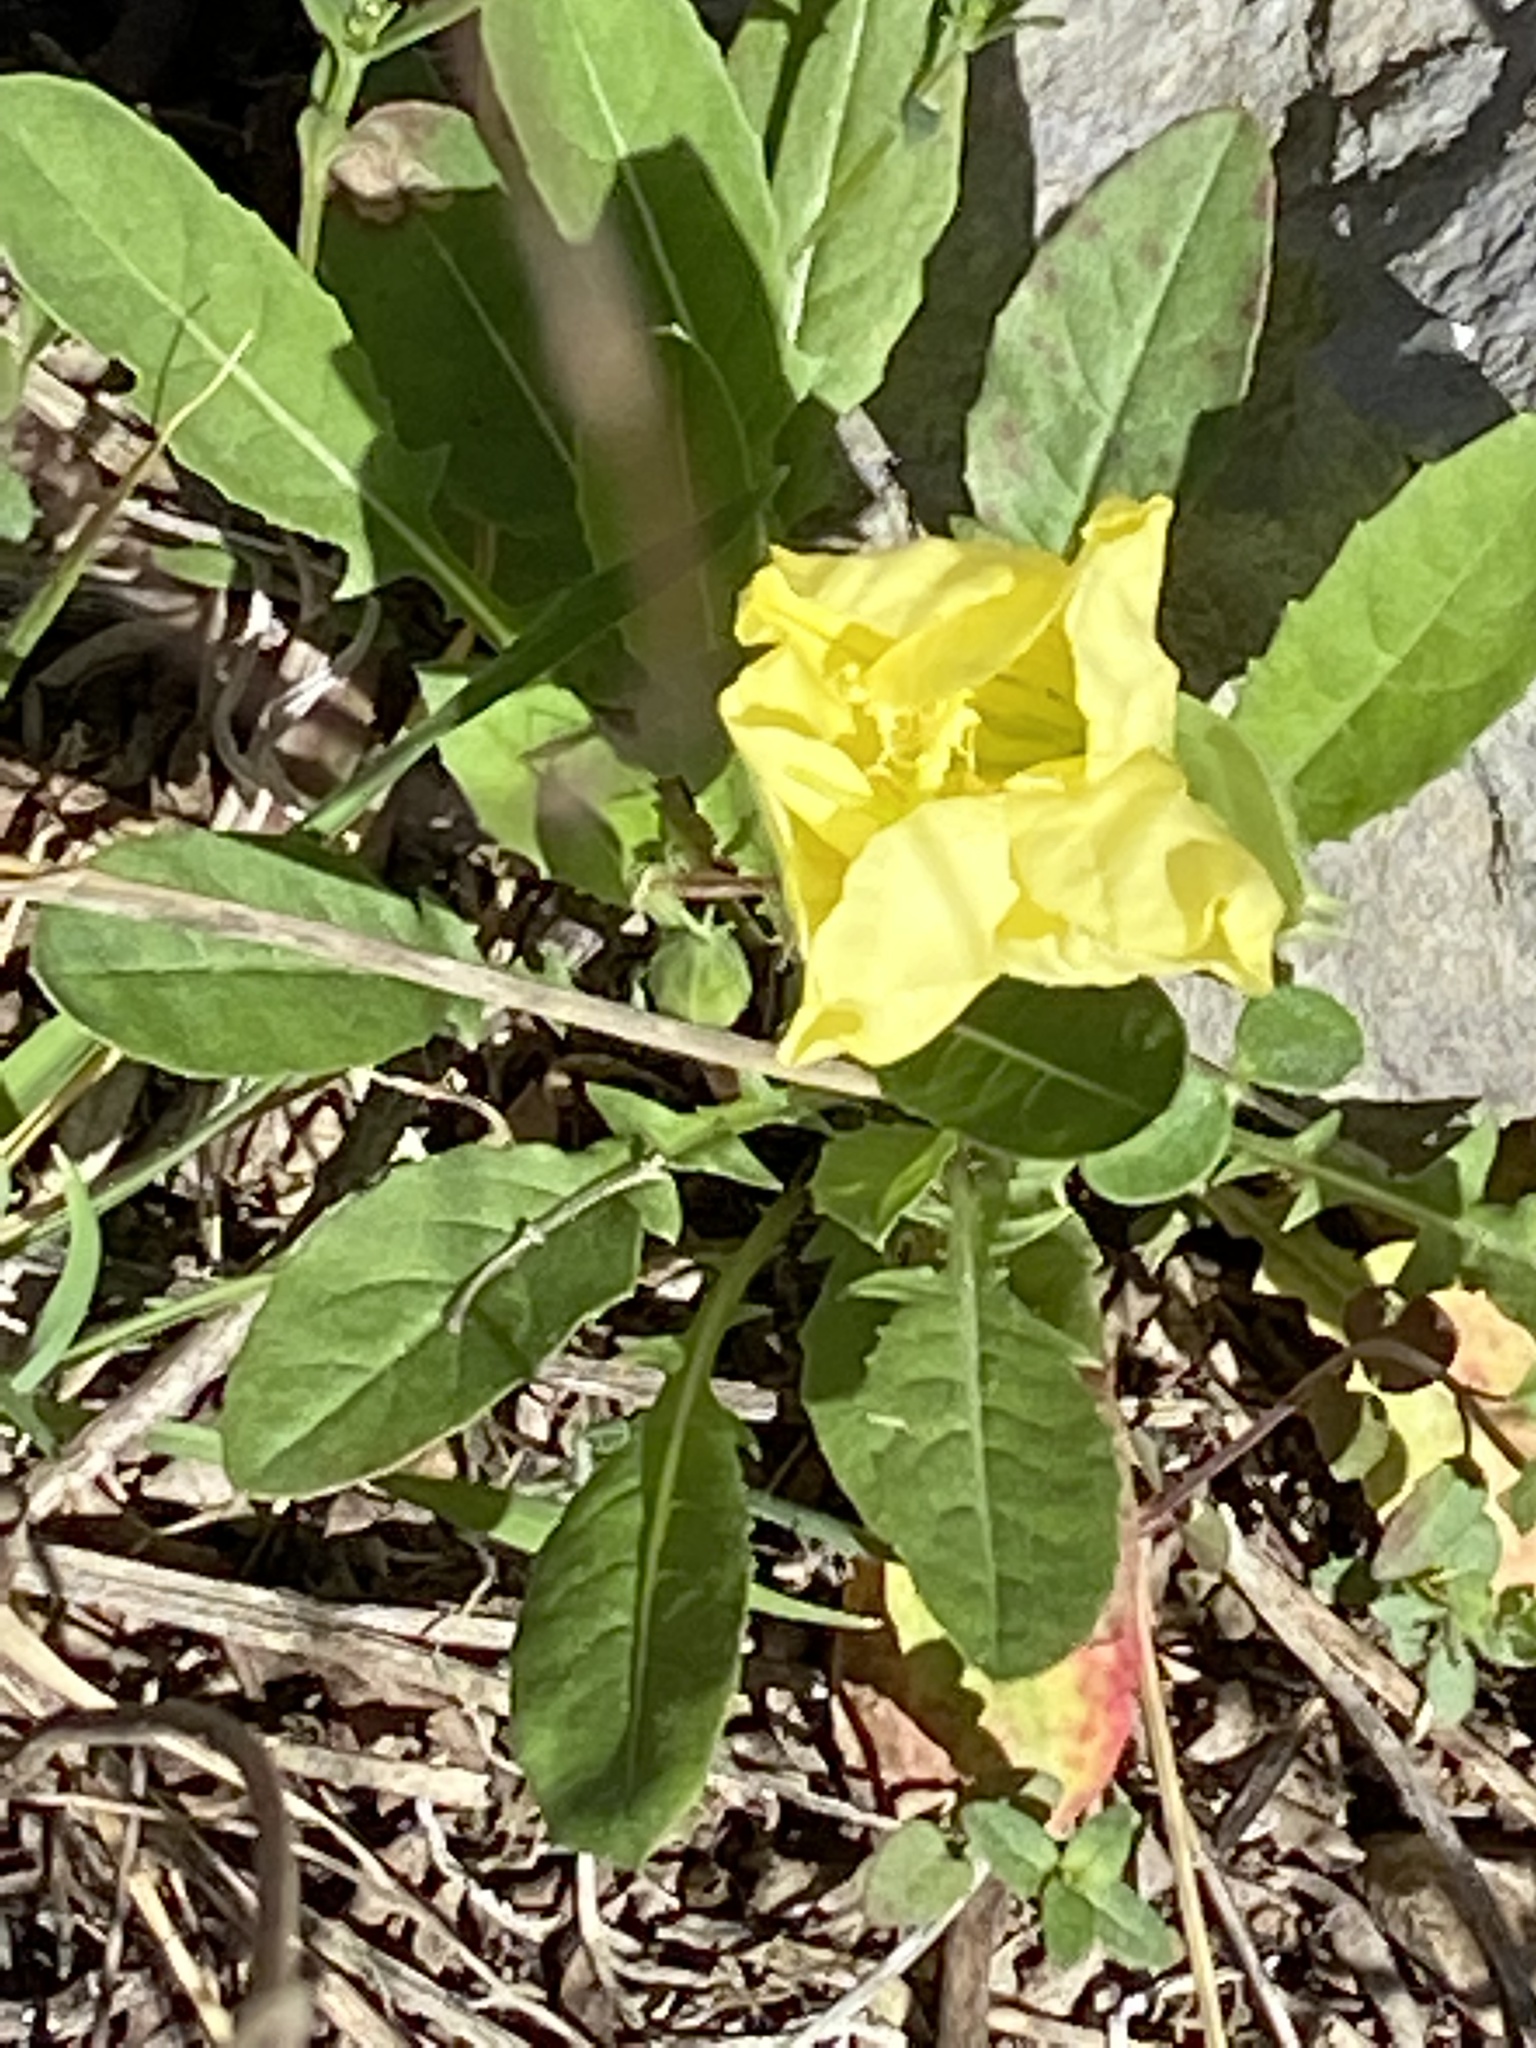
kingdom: Plantae
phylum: Tracheophyta
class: Magnoliopsida
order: Myrtales
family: Onagraceae
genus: Oenothera
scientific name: Oenothera triloba
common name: Sessile evening-primrose
